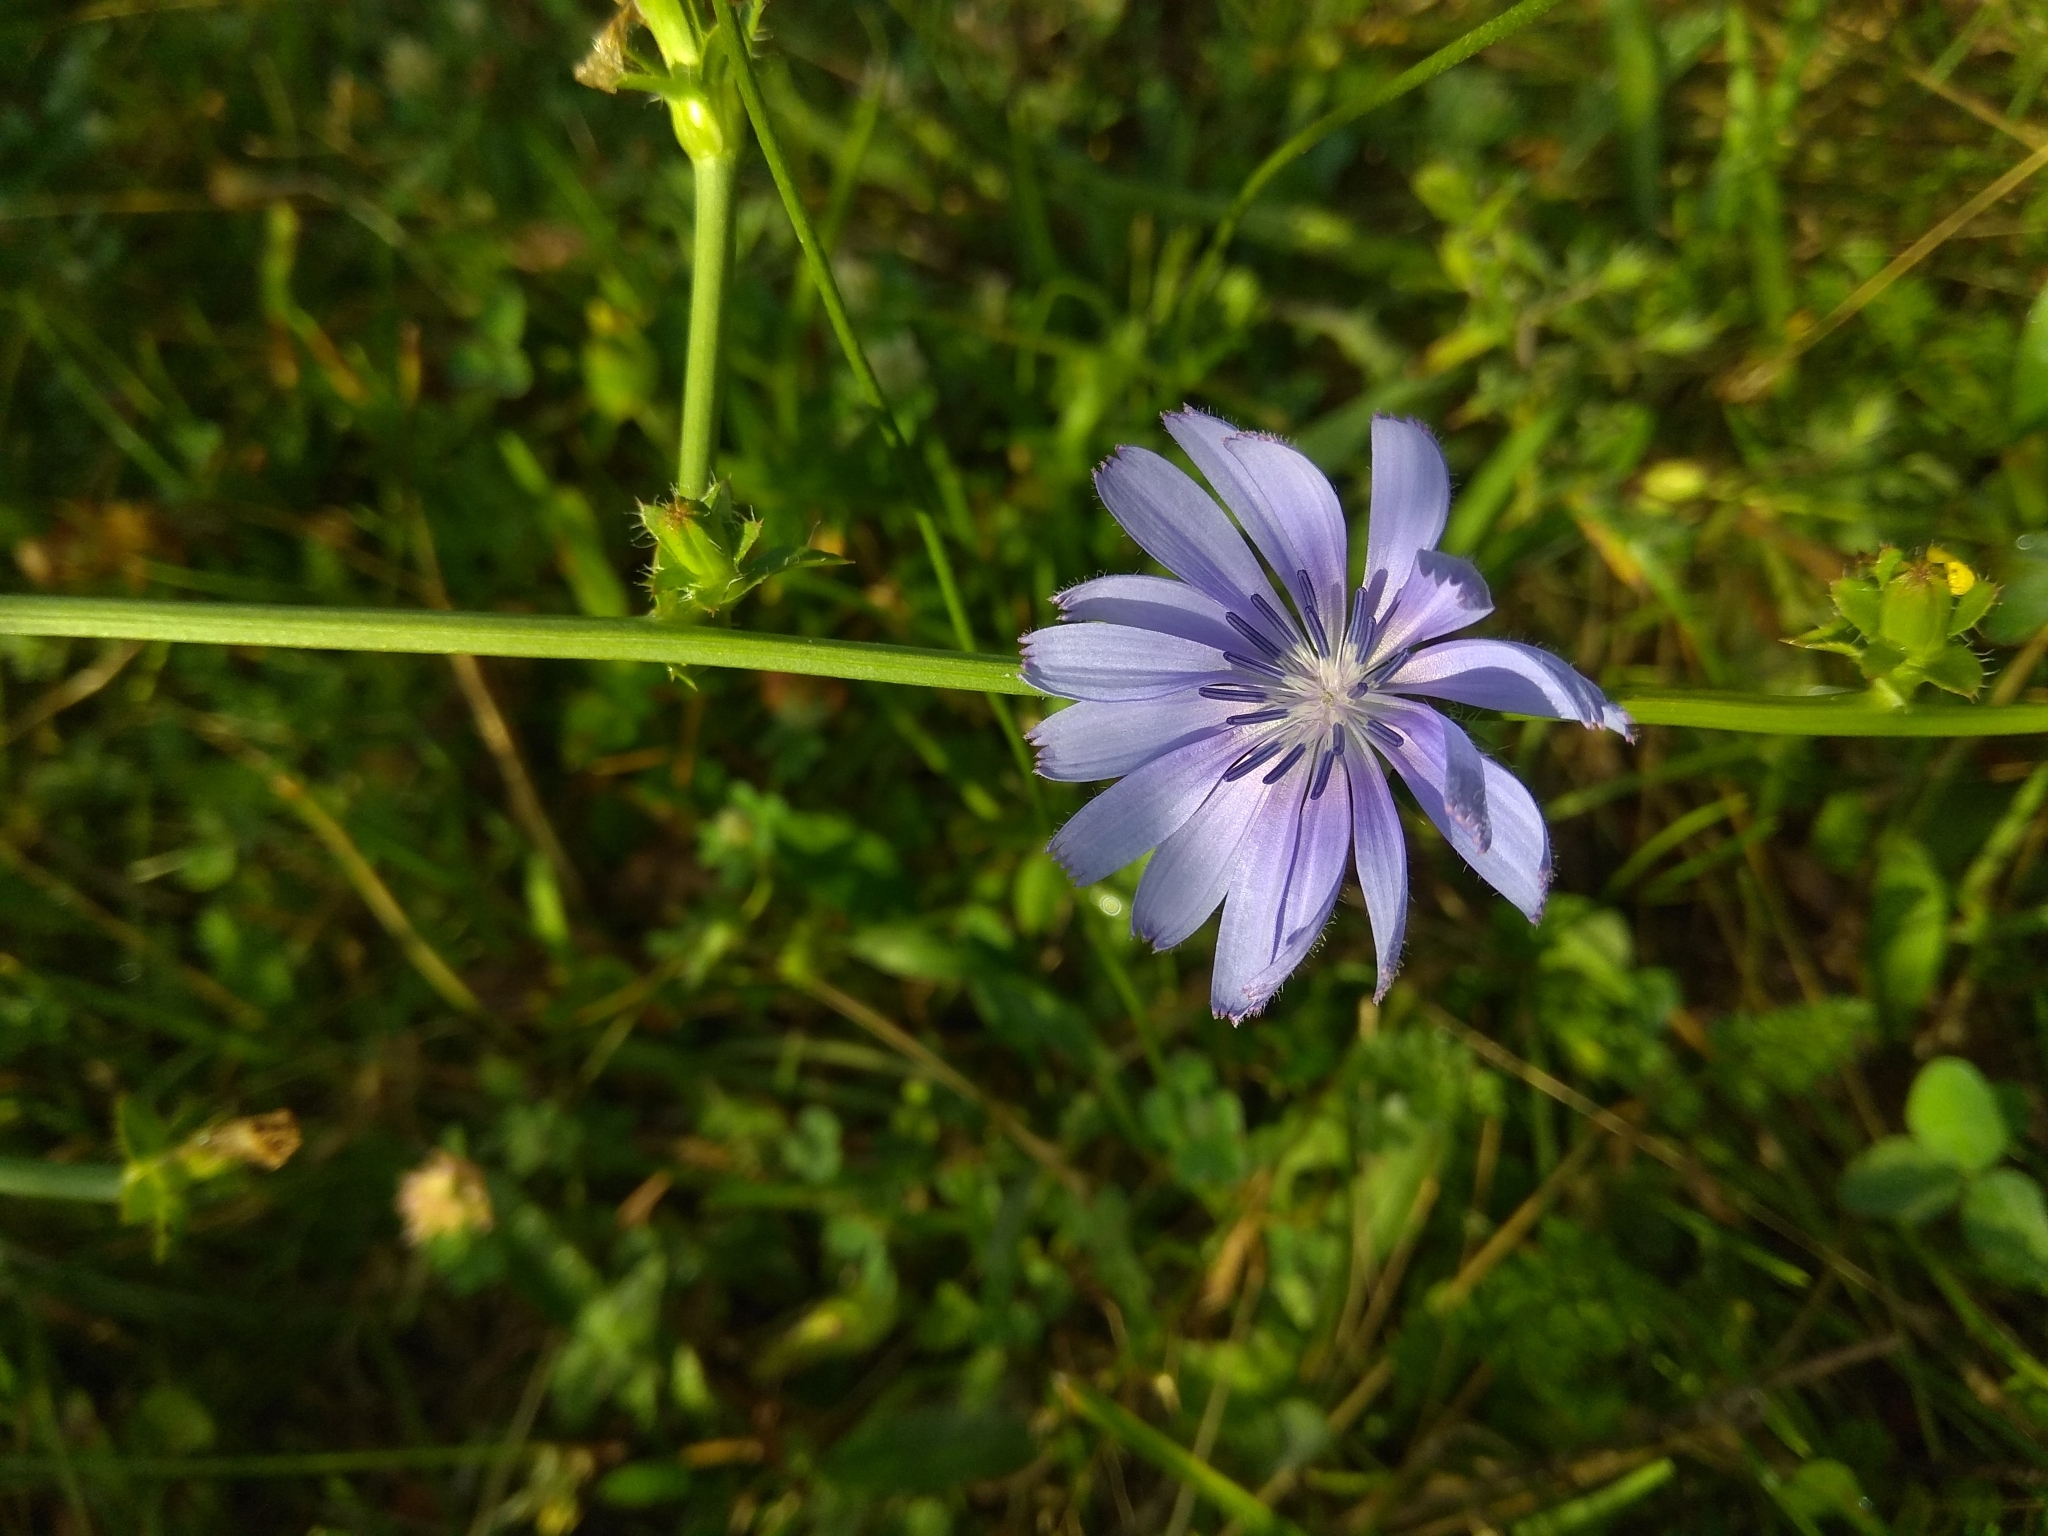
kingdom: Plantae
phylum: Tracheophyta
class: Magnoliopsida
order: Asterales
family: Asteraceae
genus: Cichorium
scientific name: Cichorium intybus
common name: Chicory
